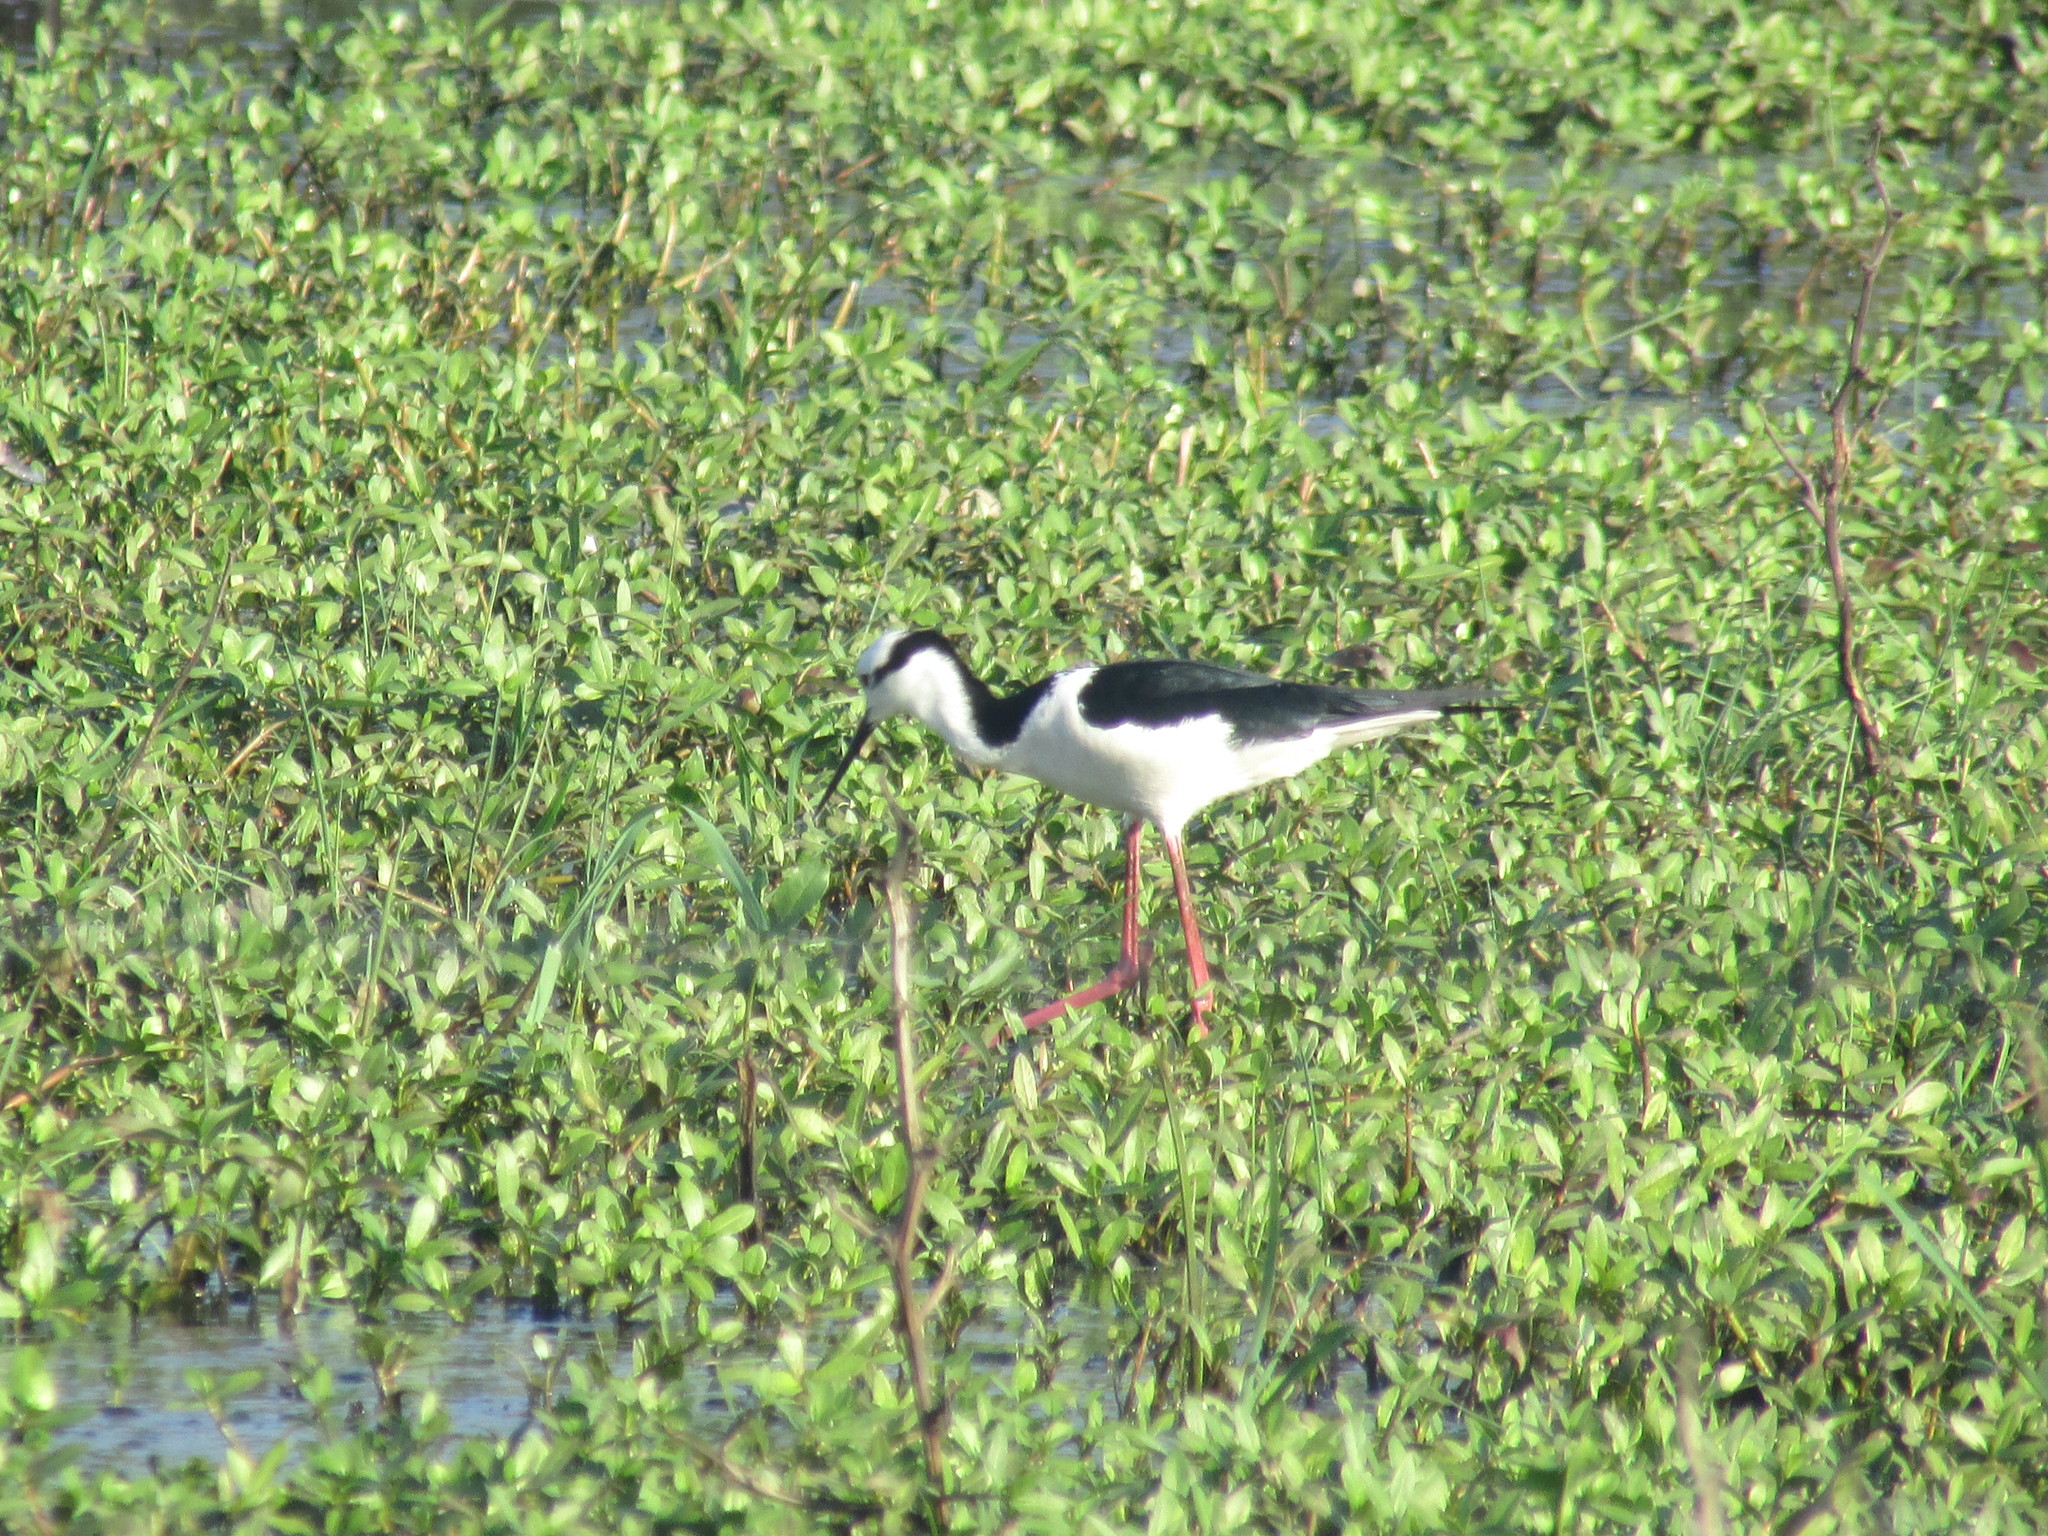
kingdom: Animalia
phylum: Chordata
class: Aves
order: Charadriiformes
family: Recurvirostridae
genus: Himantopus
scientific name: Himantopus mexicanus
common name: Black-necked stilt
